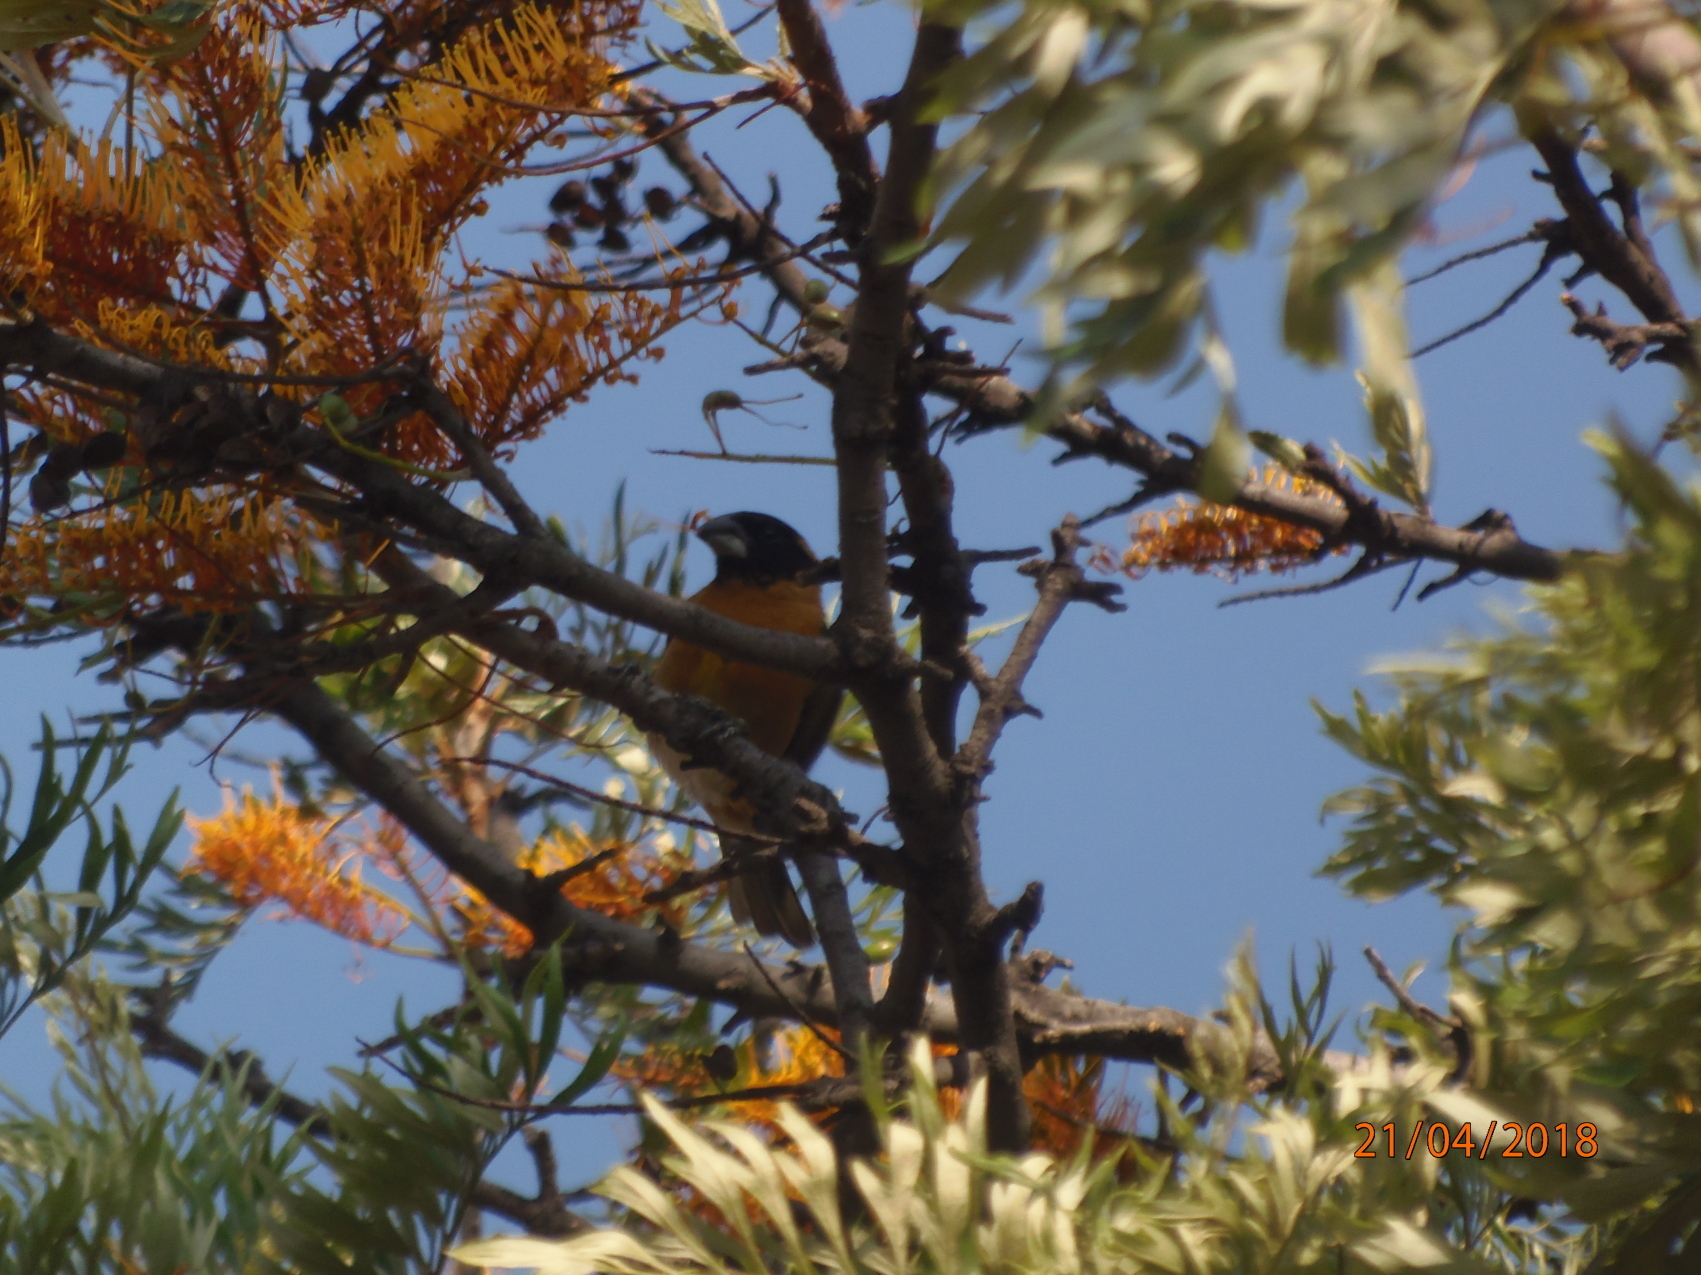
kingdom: Animalia
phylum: Chordata
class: Aves
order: Passeriformes
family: Cardinalidae
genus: Pheucticus
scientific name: Pheucticus melanocephalus
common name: Black-headed grosbeak
